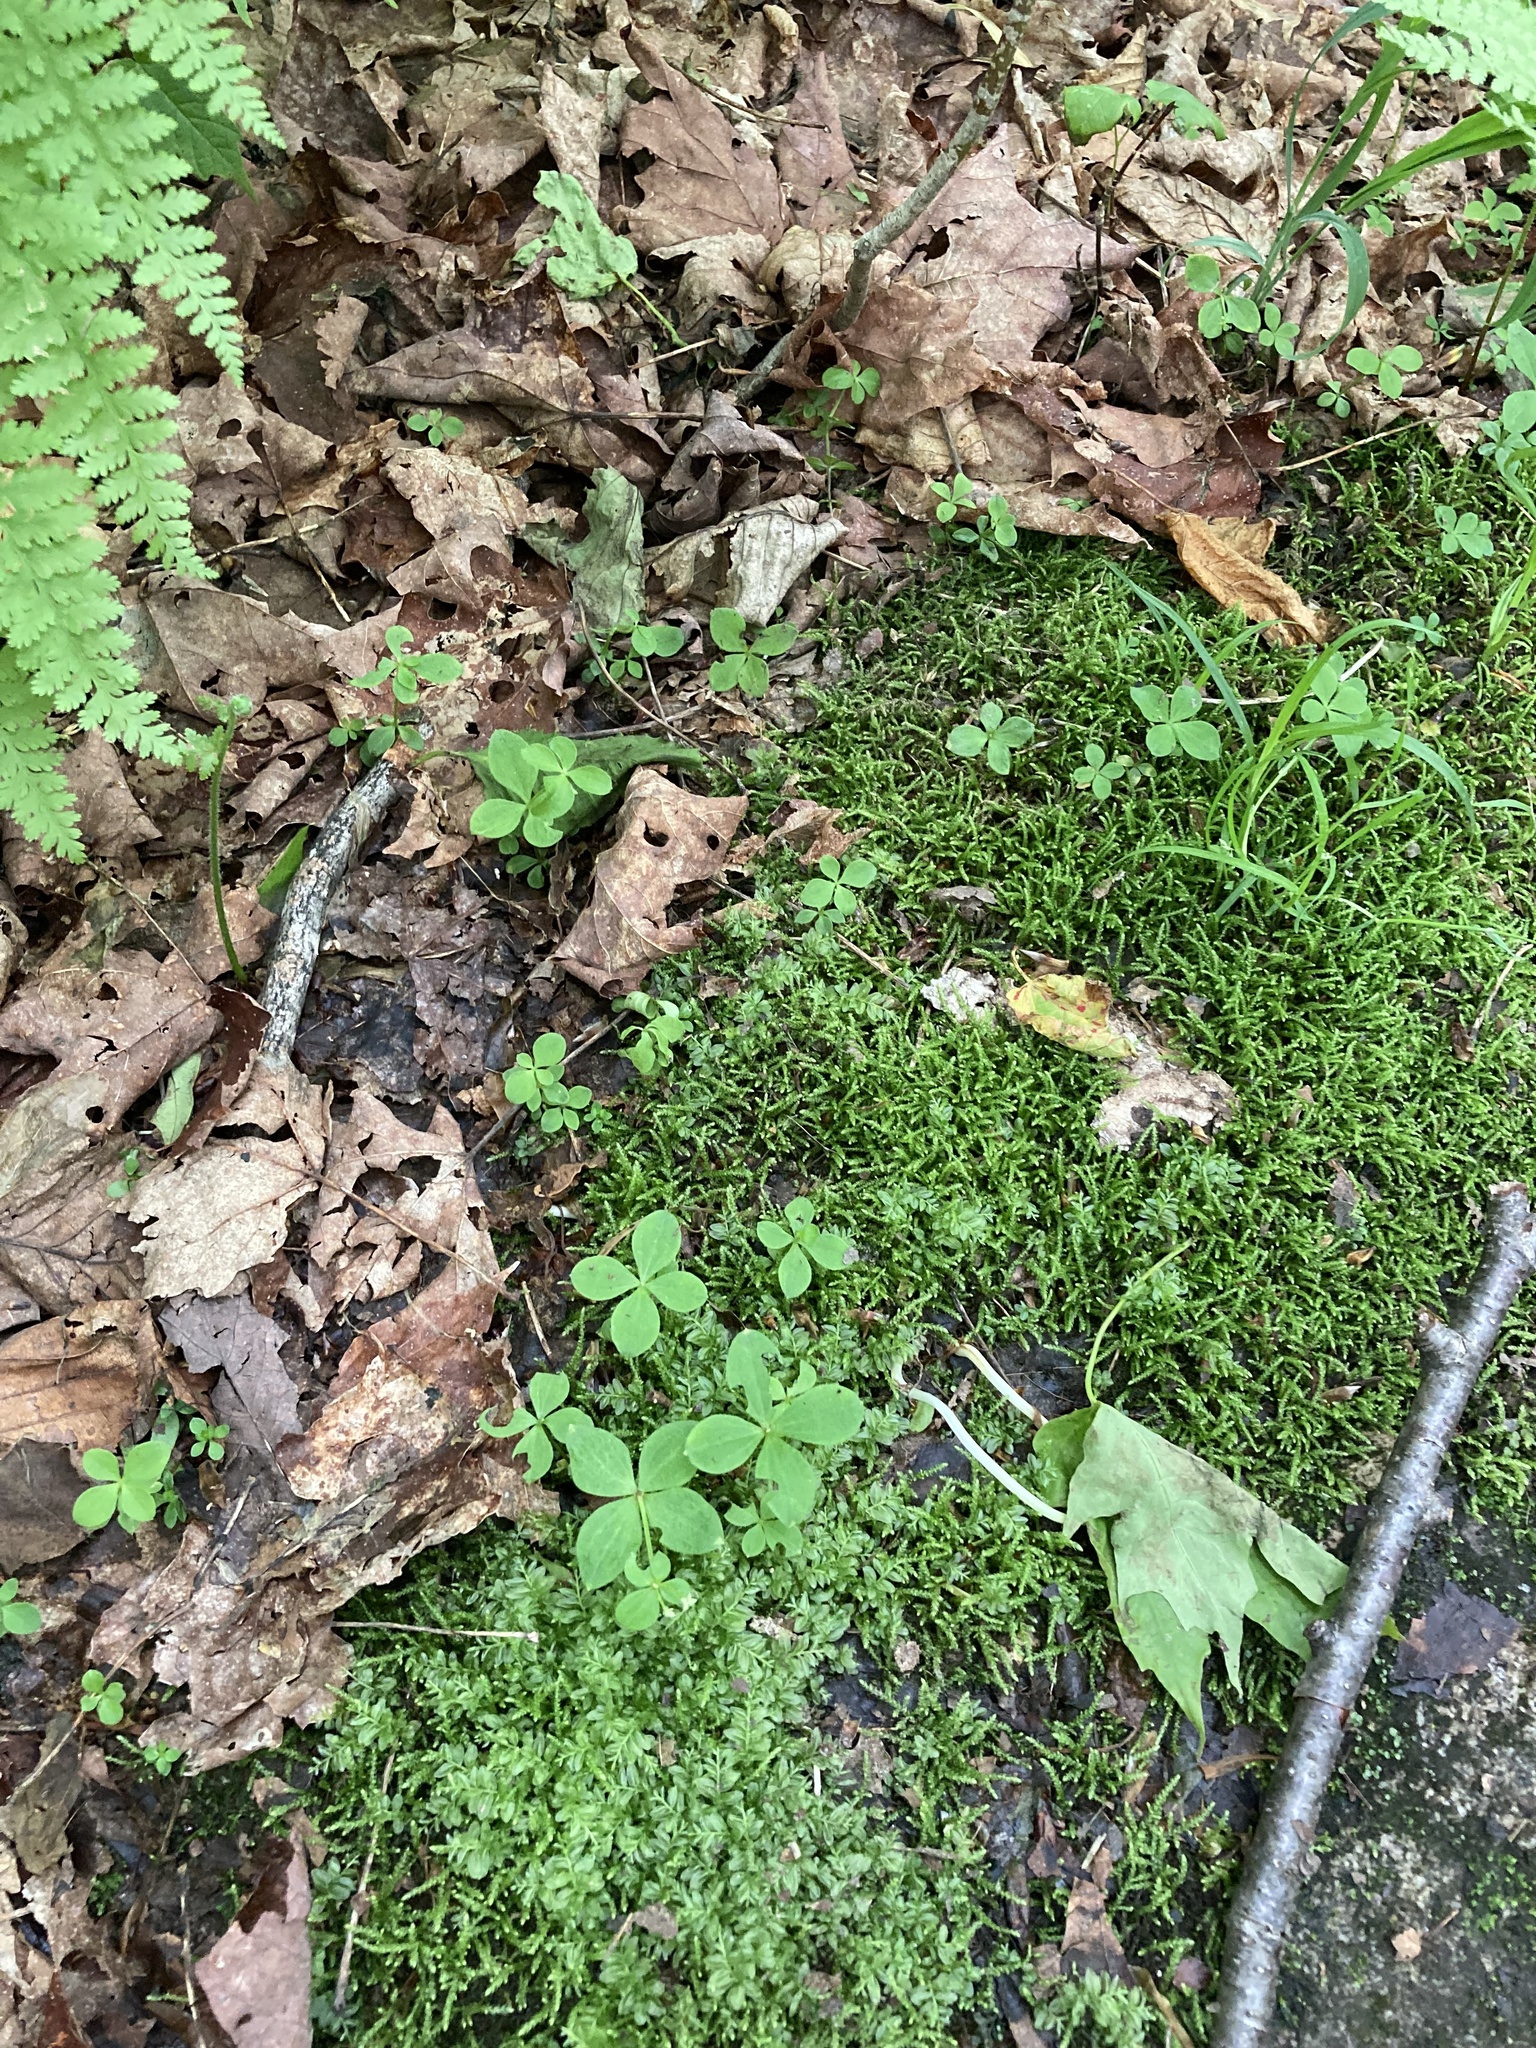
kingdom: Plantae
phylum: Tracheophyta
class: Magnoliopsida
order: Gentianales
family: Rubiaceae
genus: Galium
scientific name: Galium kamtschaticum
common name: Boreal bedstraw
